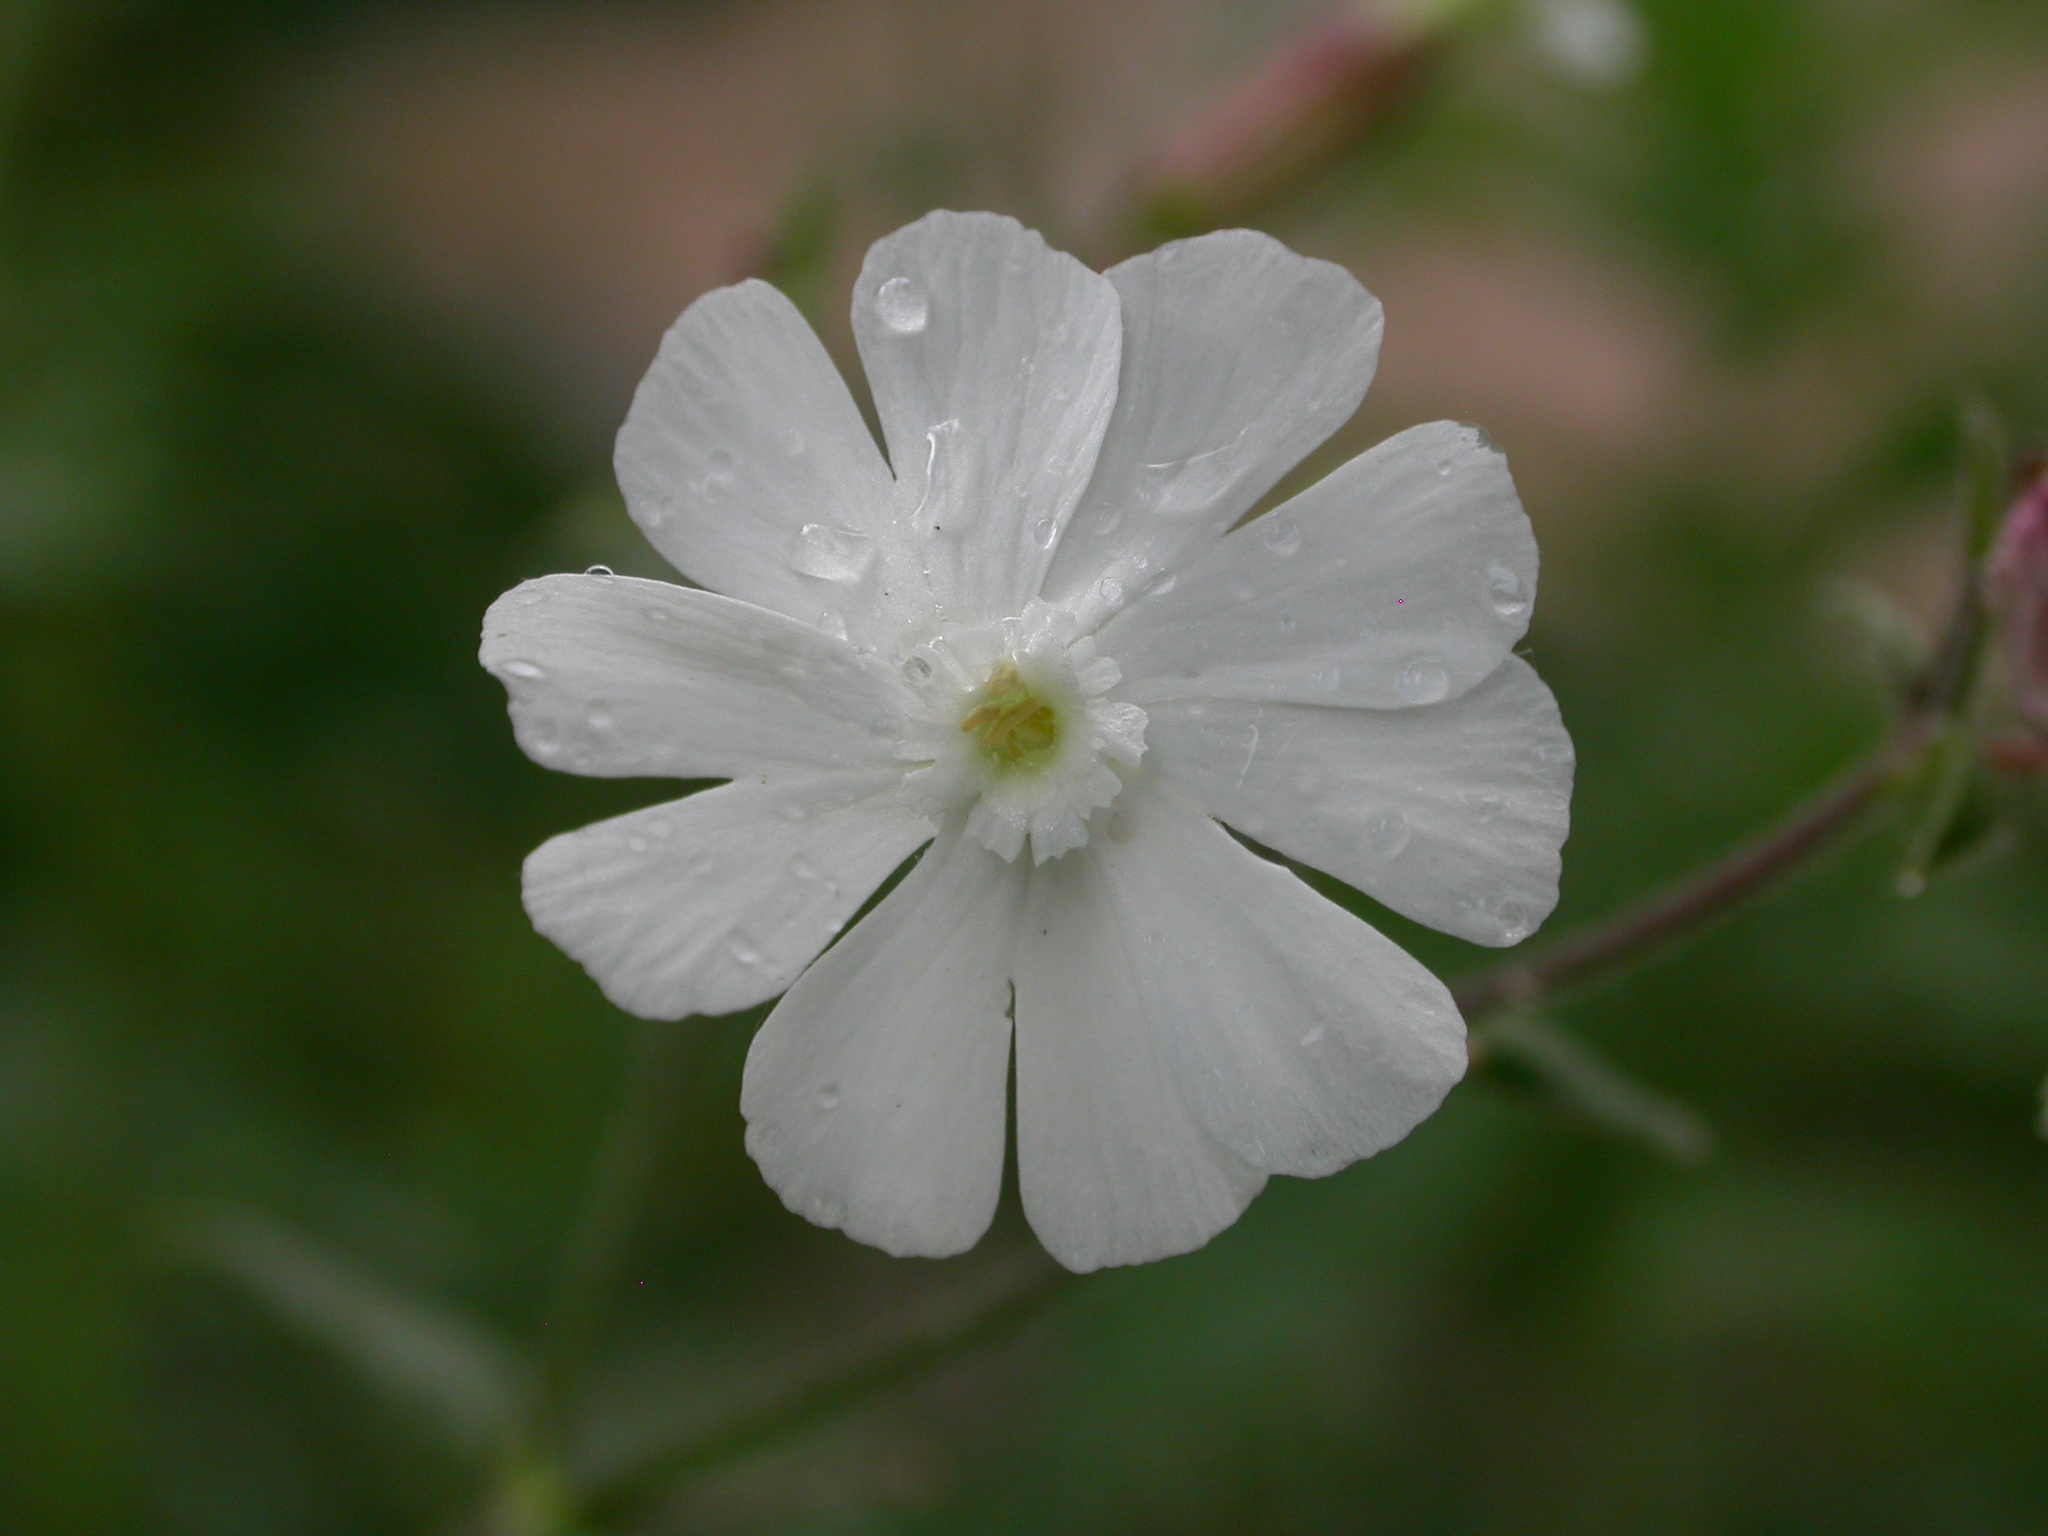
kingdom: Plantae
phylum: Tracheophyta
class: Magnoliopsida
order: Caryophyllales
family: Caryophyllaceae
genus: Silene
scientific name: Silene latifolia
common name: White campion
